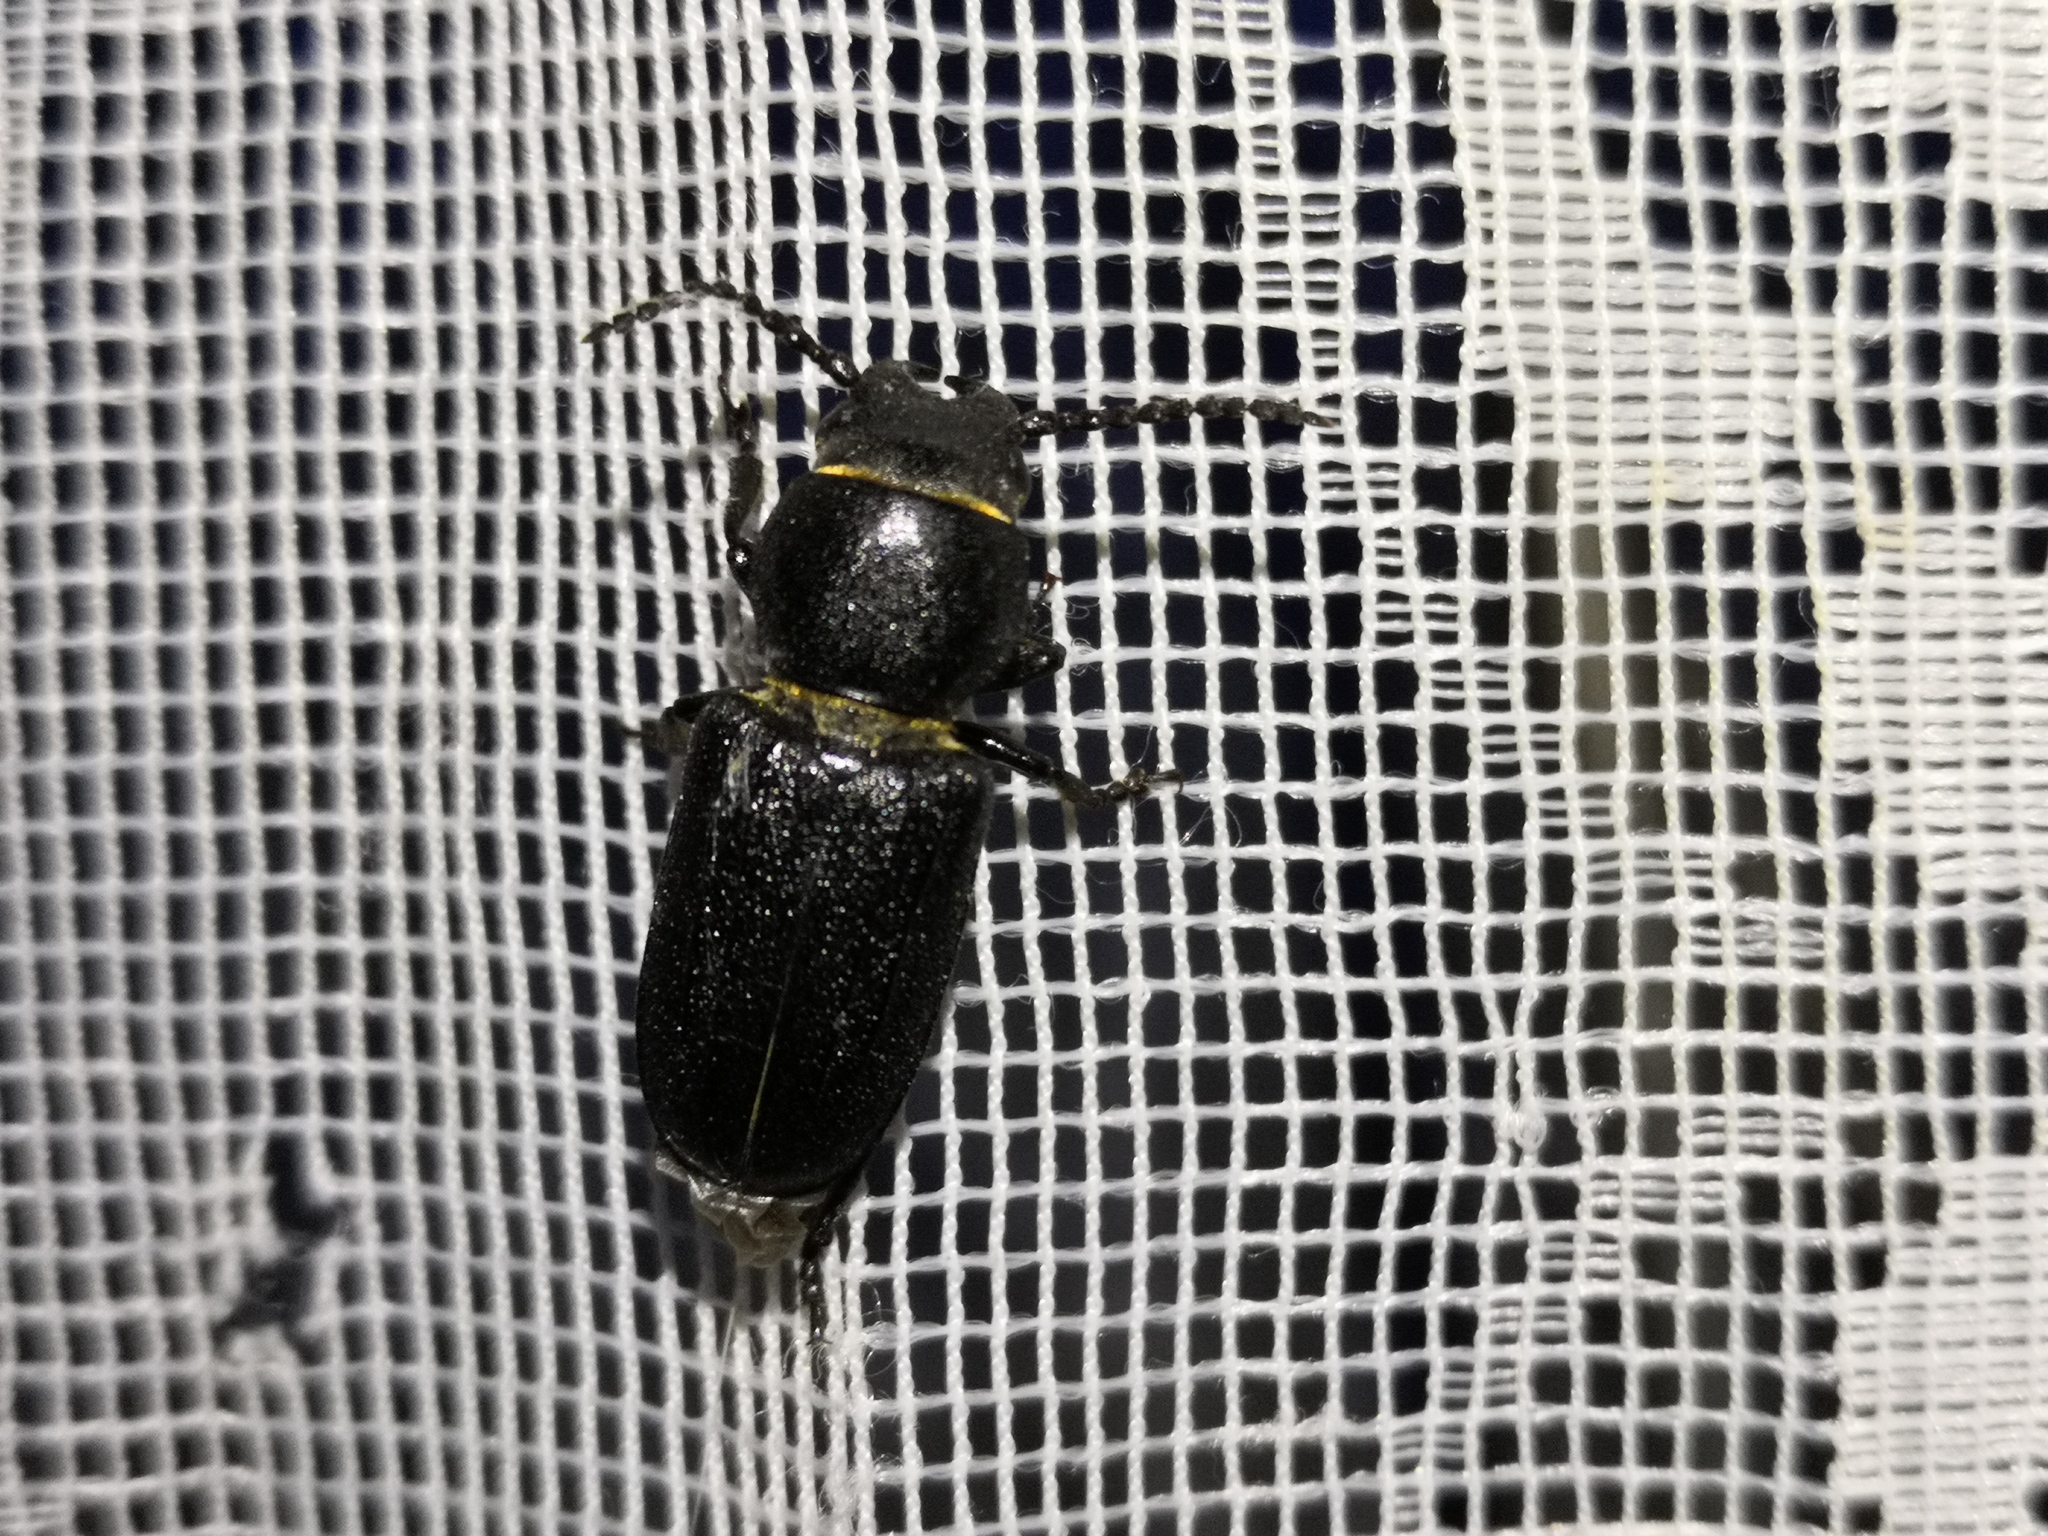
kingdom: Animalia
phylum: Arthropoda
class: Insecta
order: Coleoptera
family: Cerambycidae
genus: Spondylis
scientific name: Spondylis buprestoides
